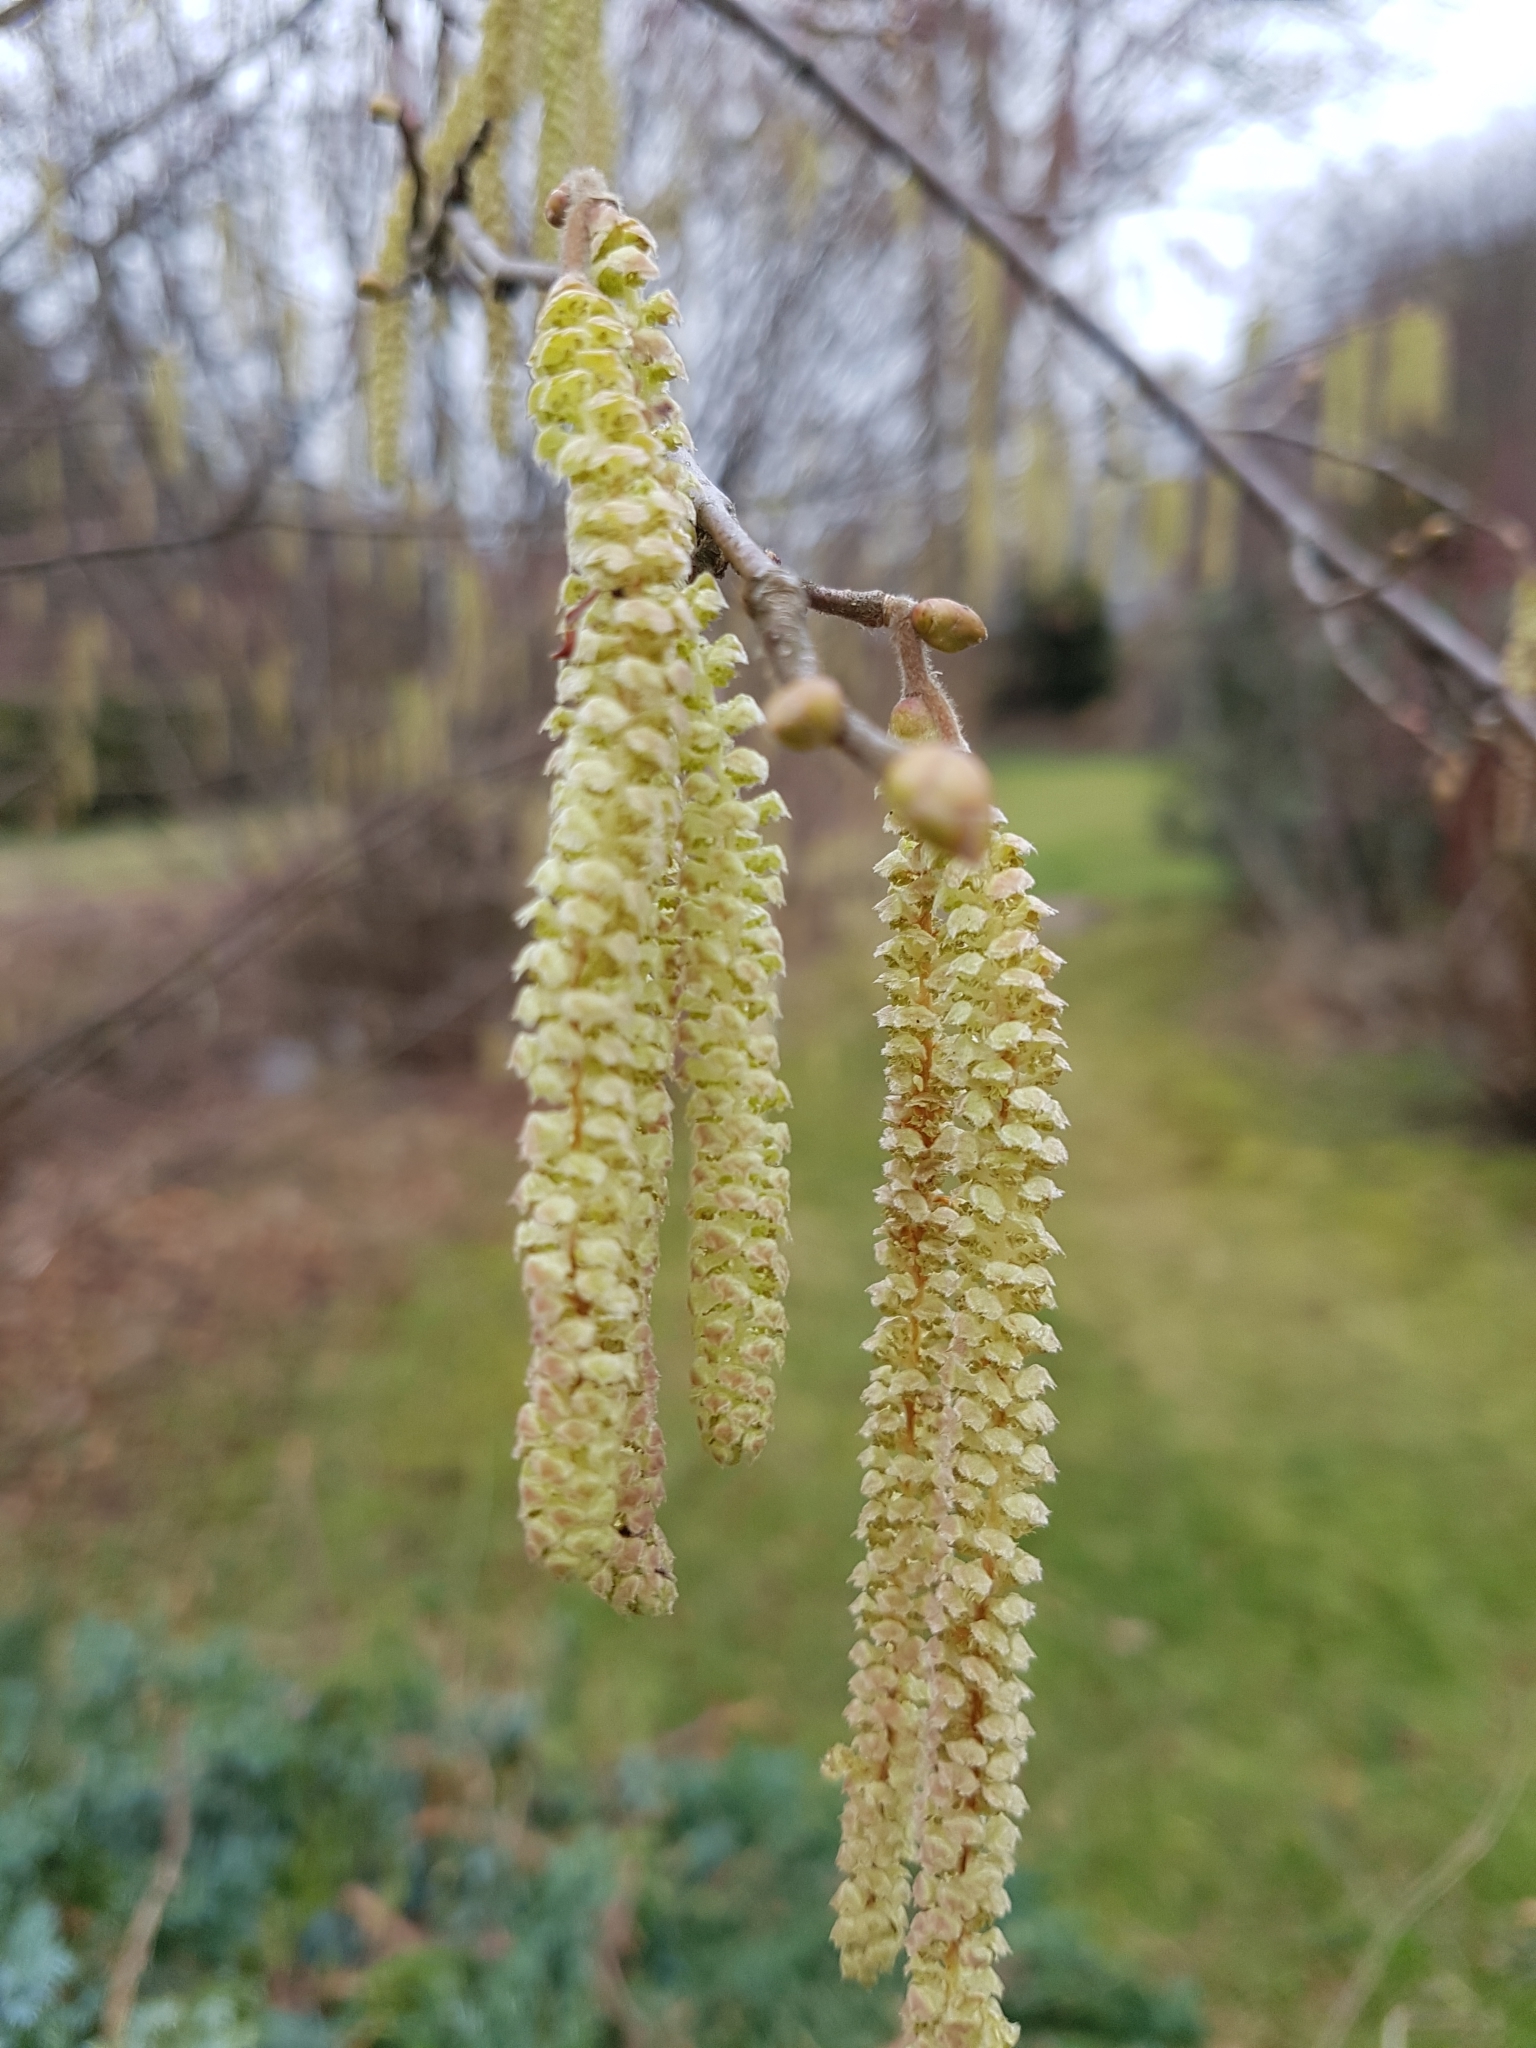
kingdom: Plantae
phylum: Tracheophyta
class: Magnoliopsida
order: Fagales
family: Betulaceae
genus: Corylus
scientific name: Corylus avellana
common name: European hazel
